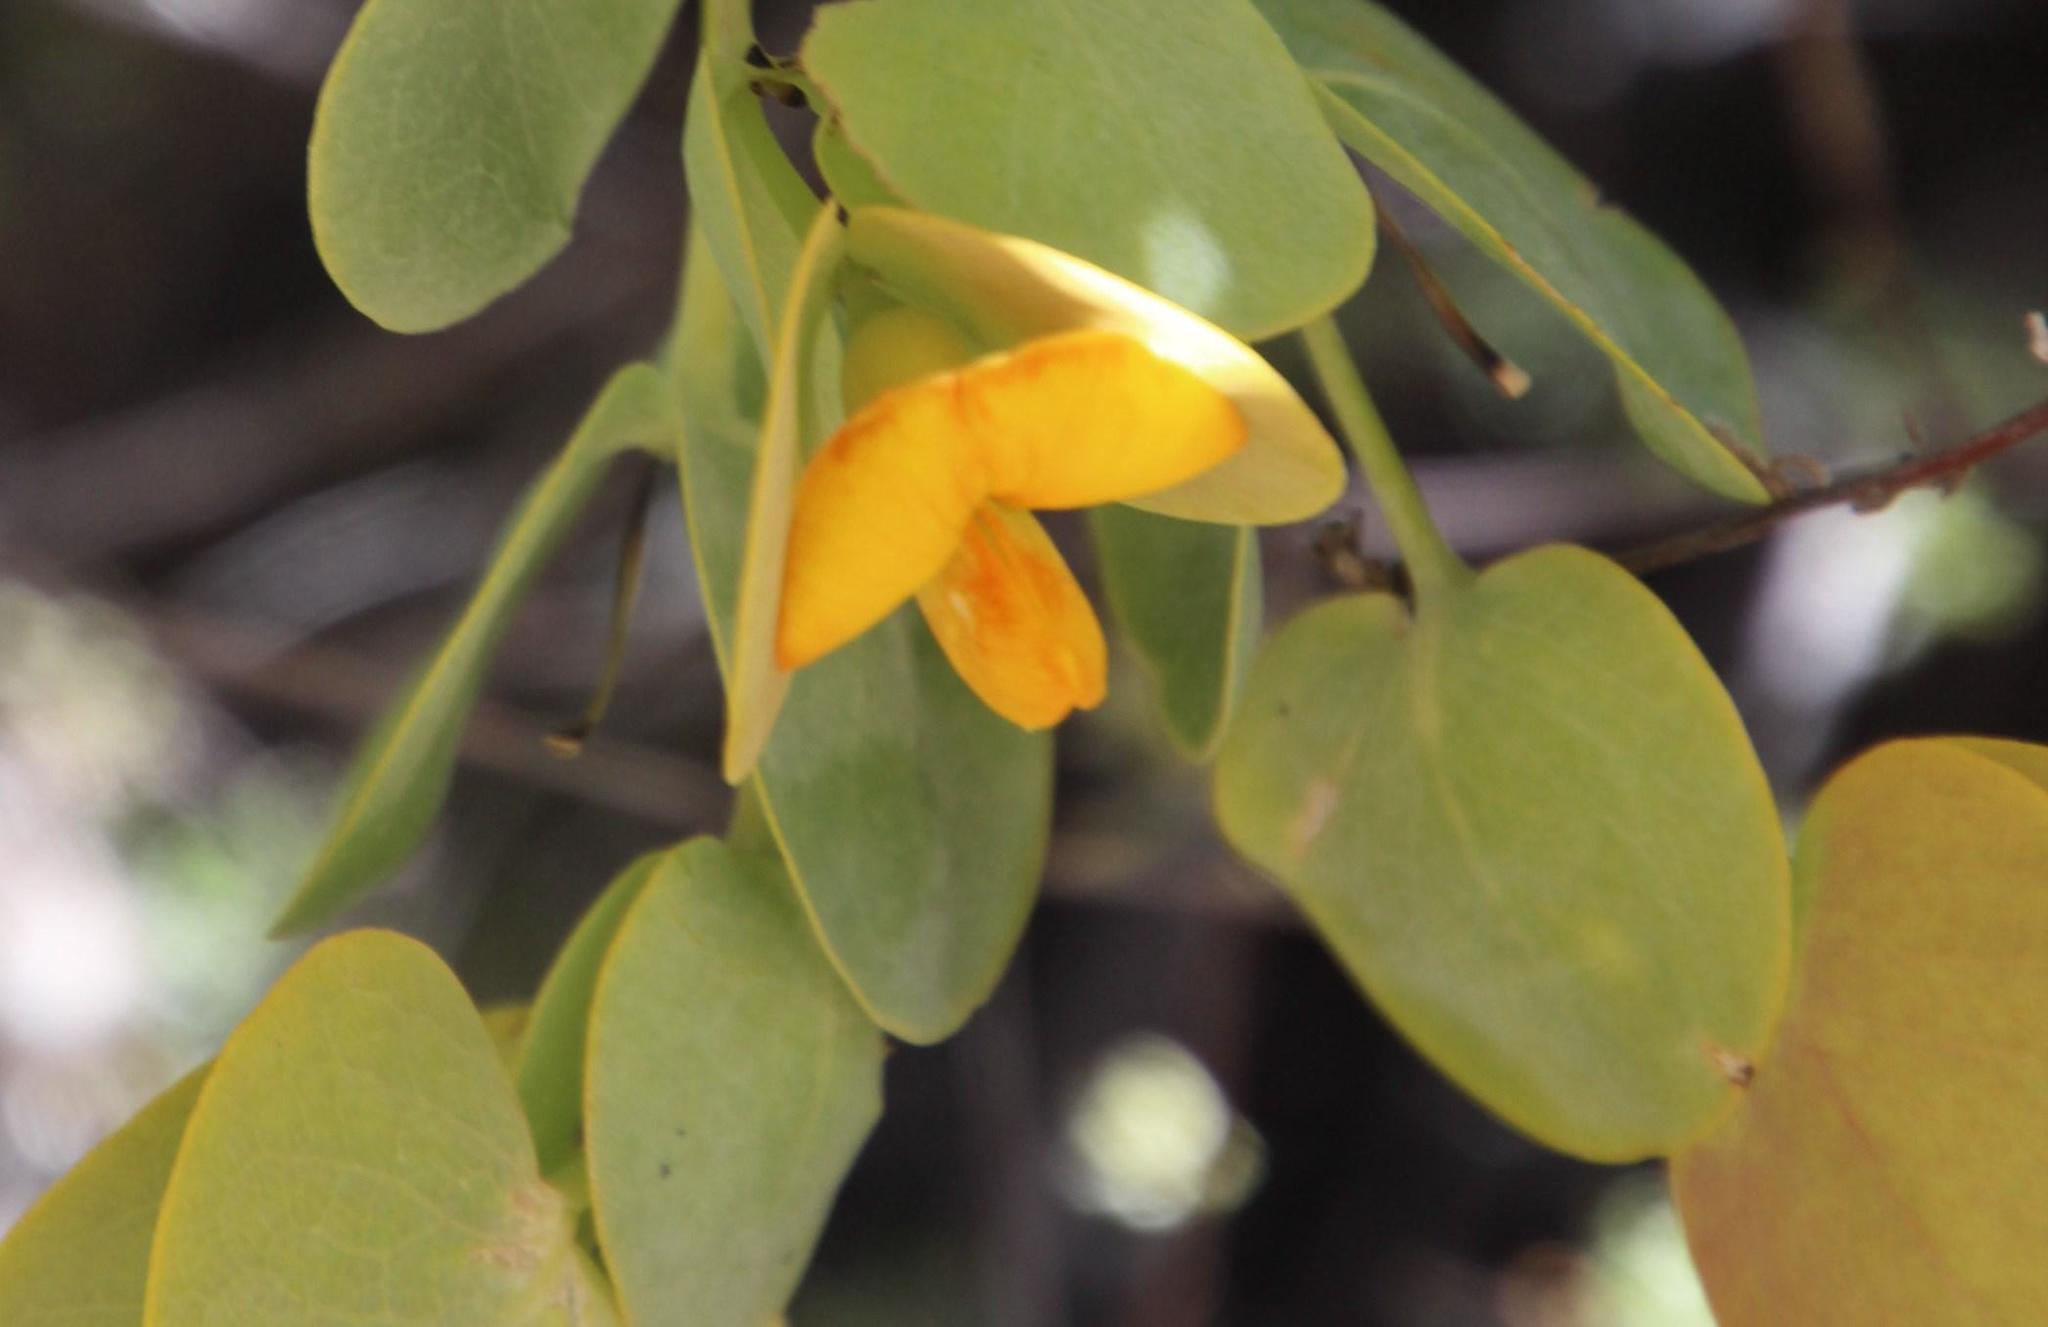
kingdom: Plantae
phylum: Tracheophyta
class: Magnoliopsida
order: Fabales
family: Fabaceae
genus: Rafnia
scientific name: Rafnia amplexicaulis
